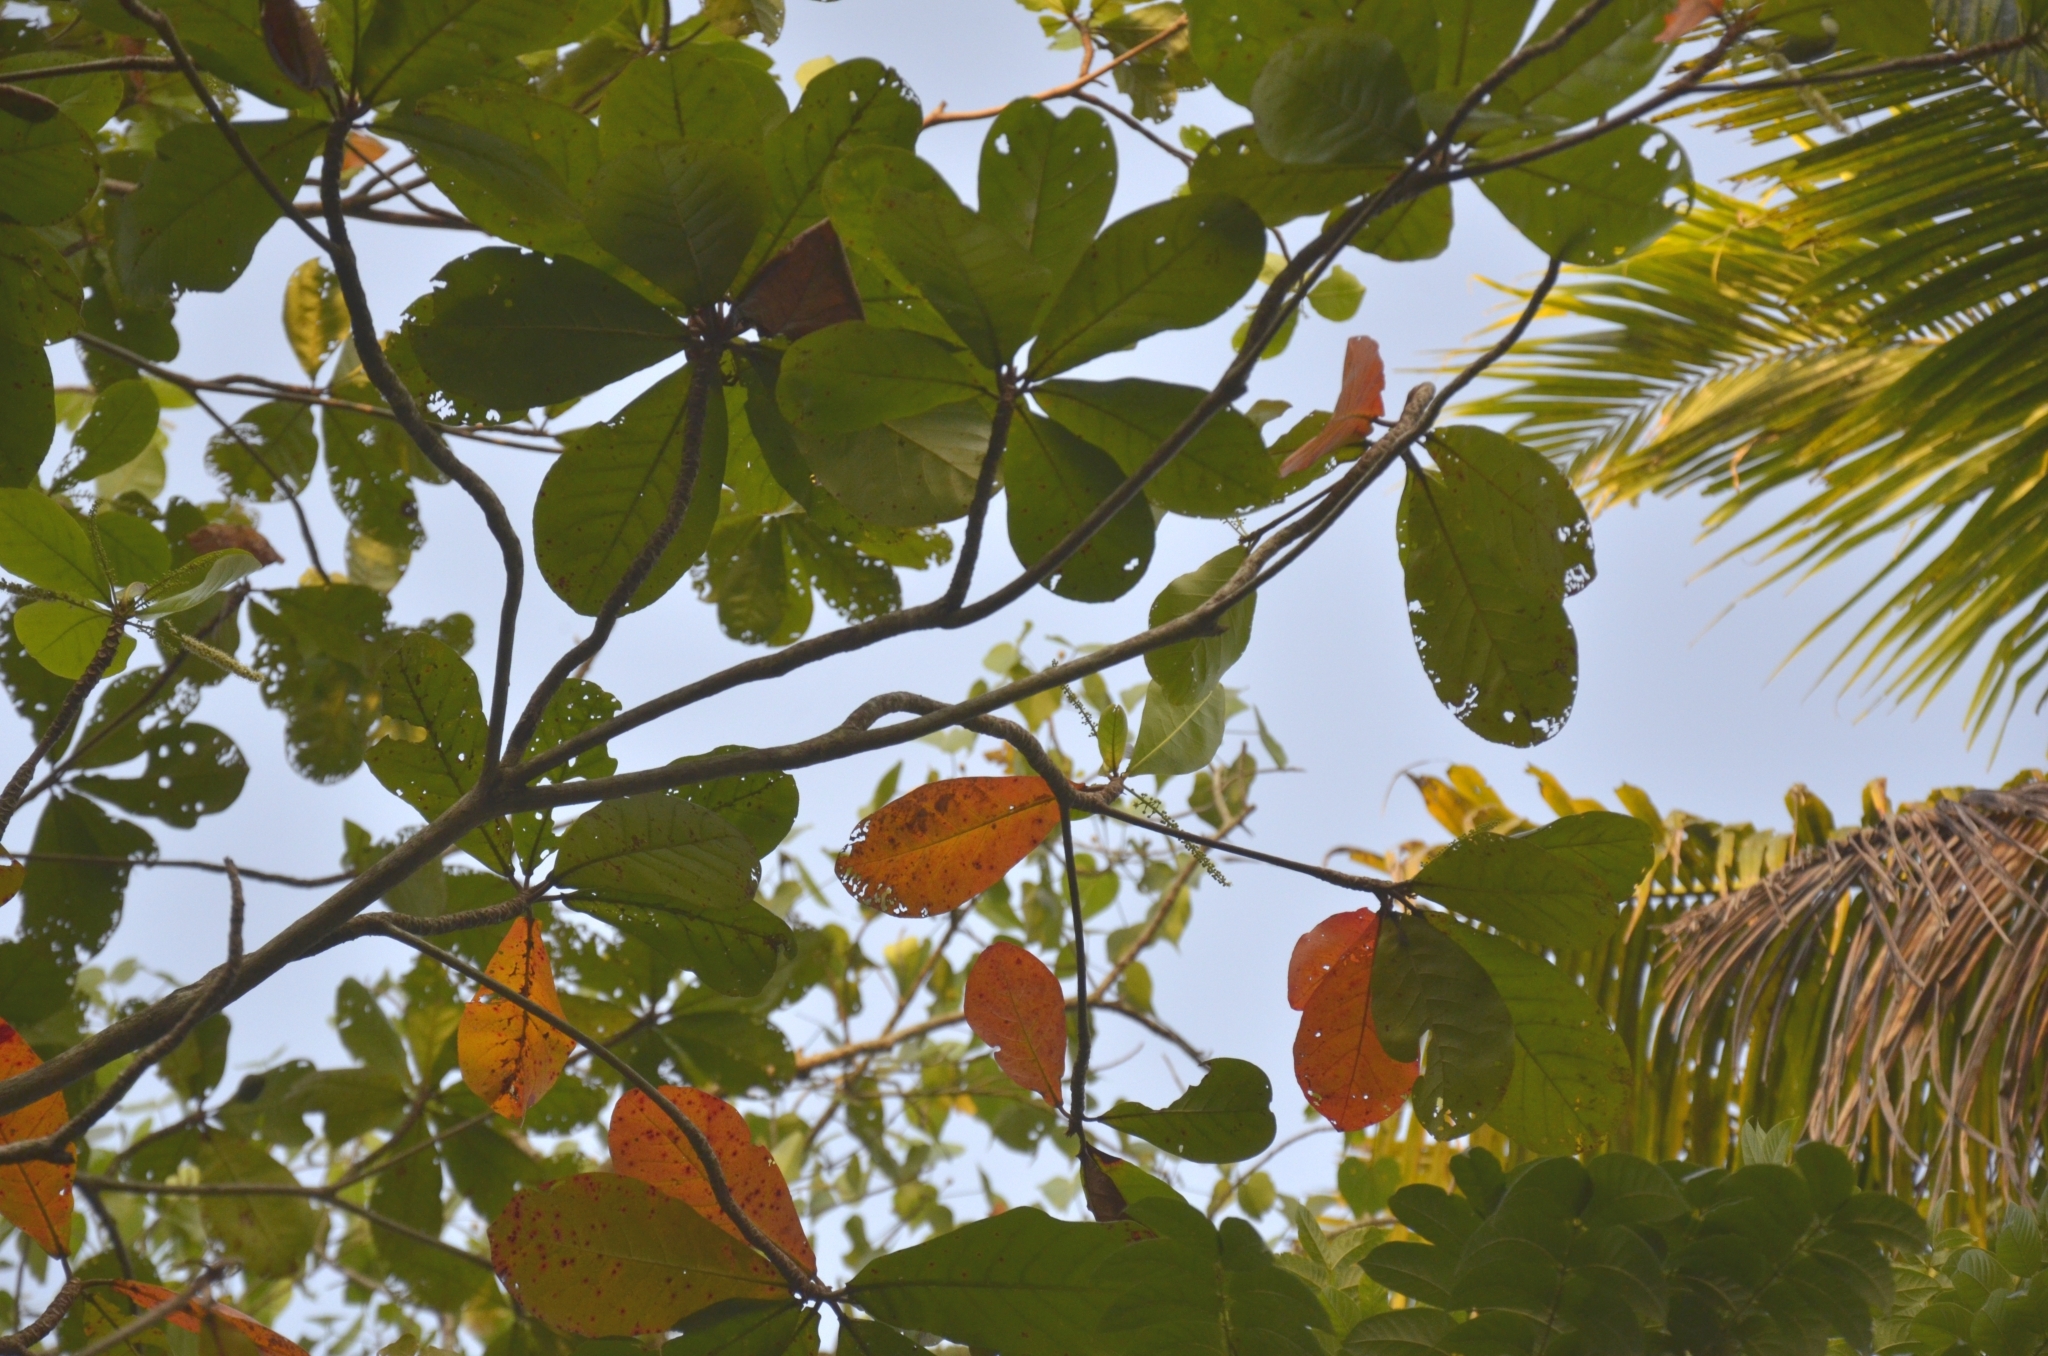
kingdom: Plantae
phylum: Tracheophyta
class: Magnoliopsida
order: Myrtales
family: Combretaceae
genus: Terminalia
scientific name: Terminalia catappa
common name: Tropical almond
